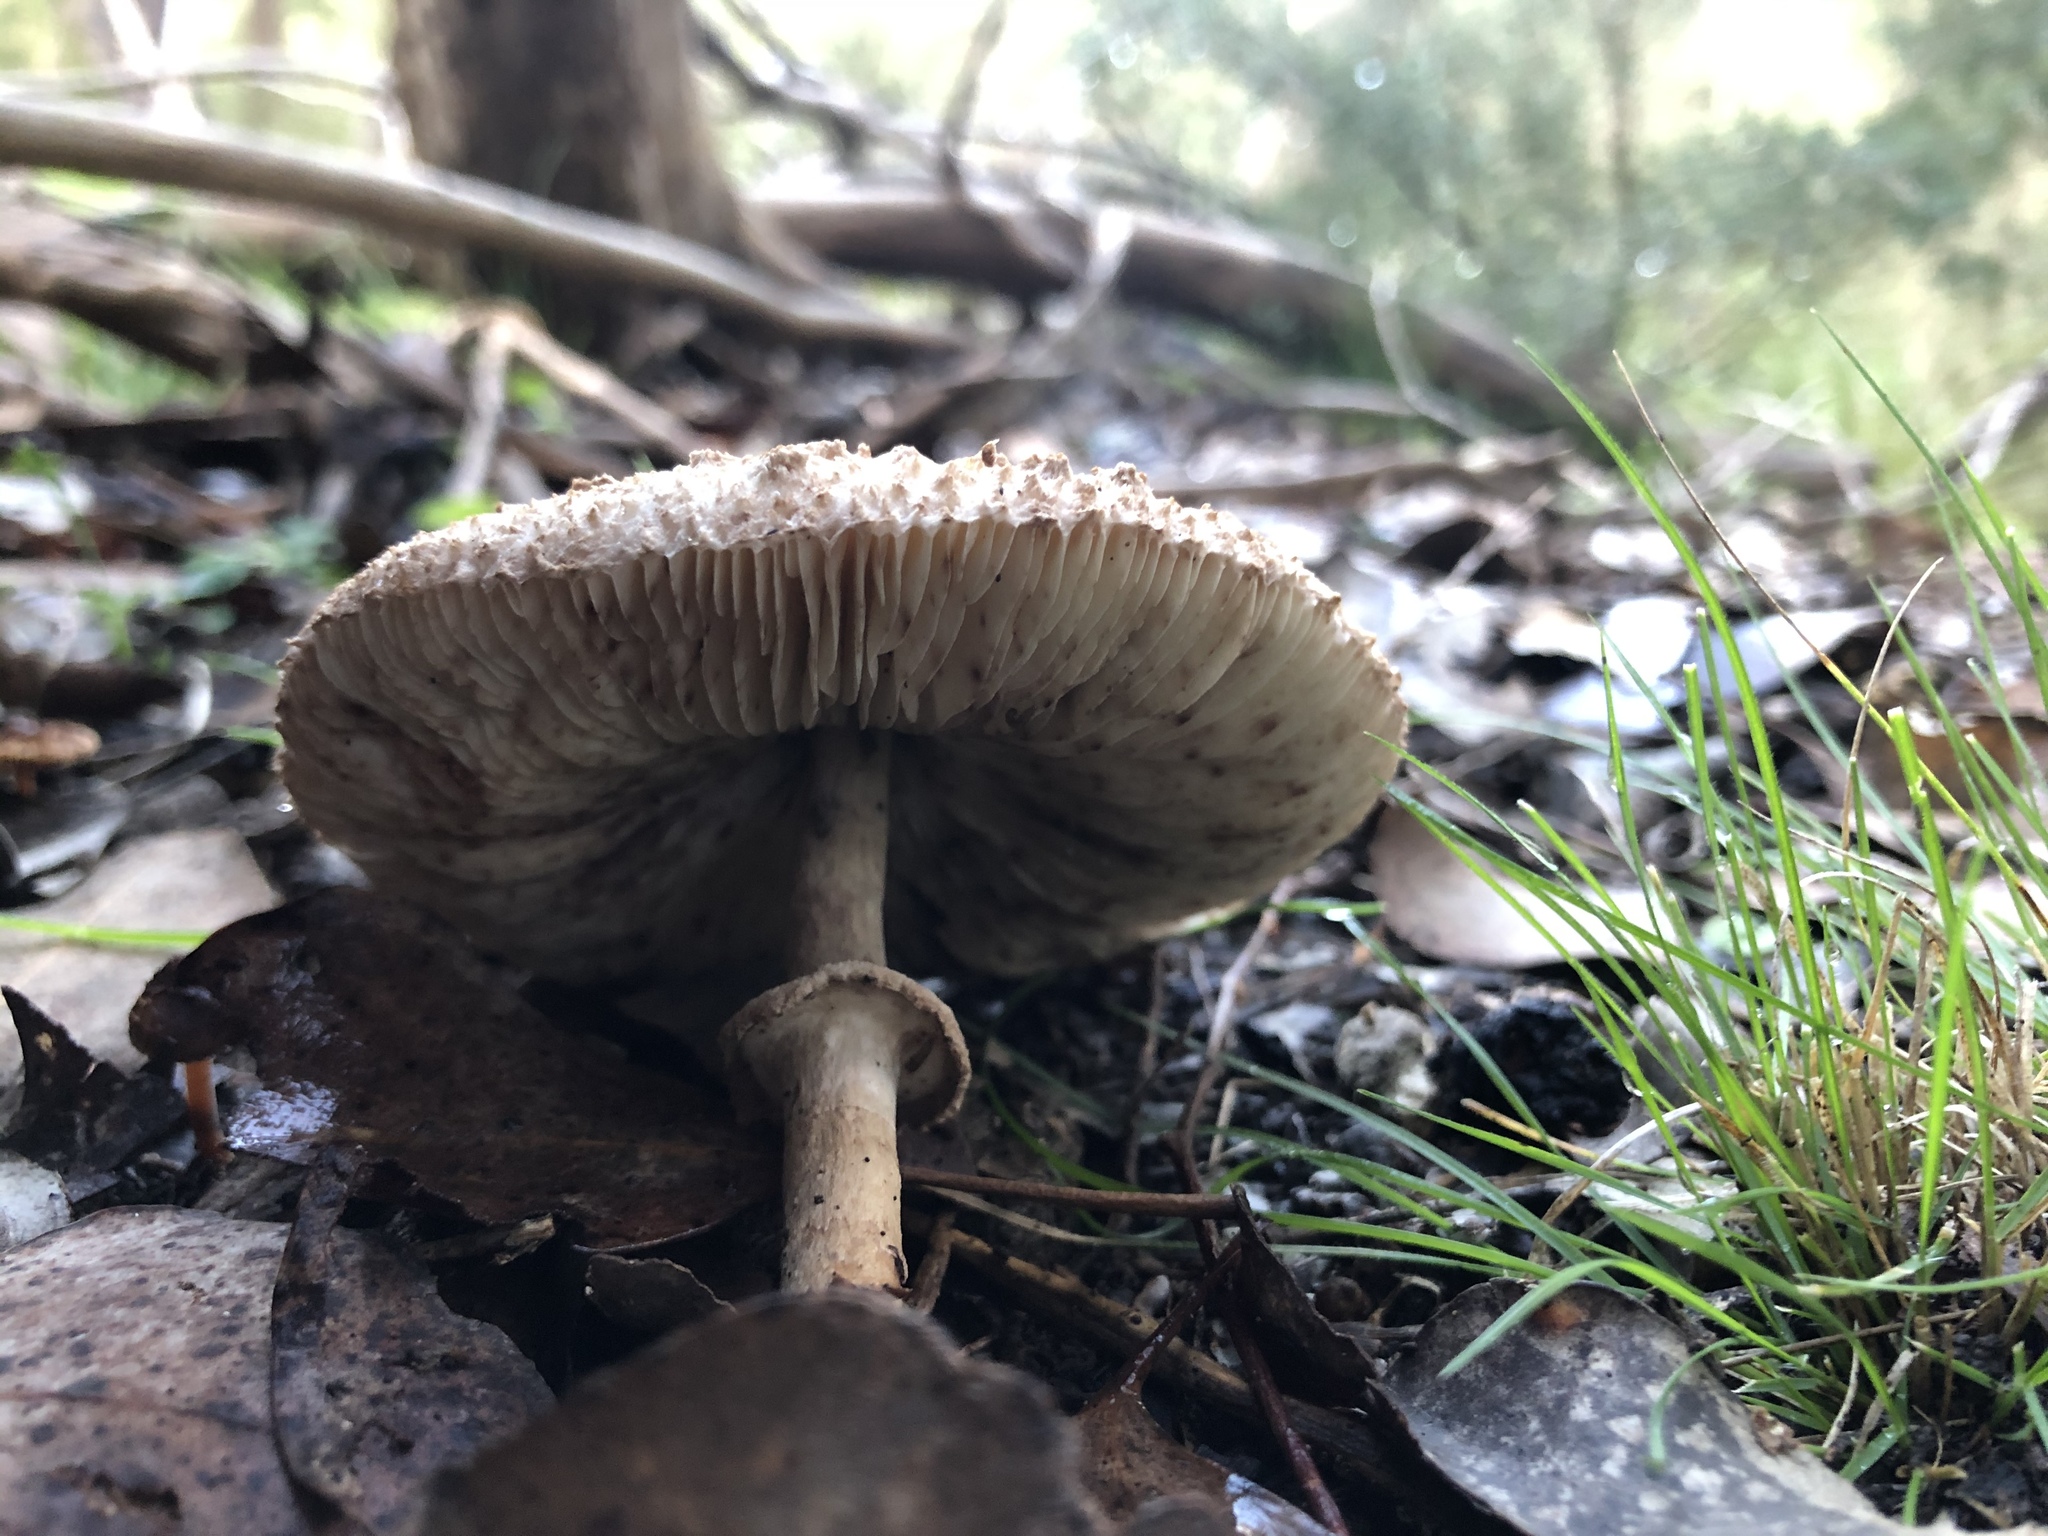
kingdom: Fungi
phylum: Basidiomycota
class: Agaricomycetes
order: Agaricales
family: Agaricaceae
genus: Macrolepiota
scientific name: Macrolepiota clelandii
